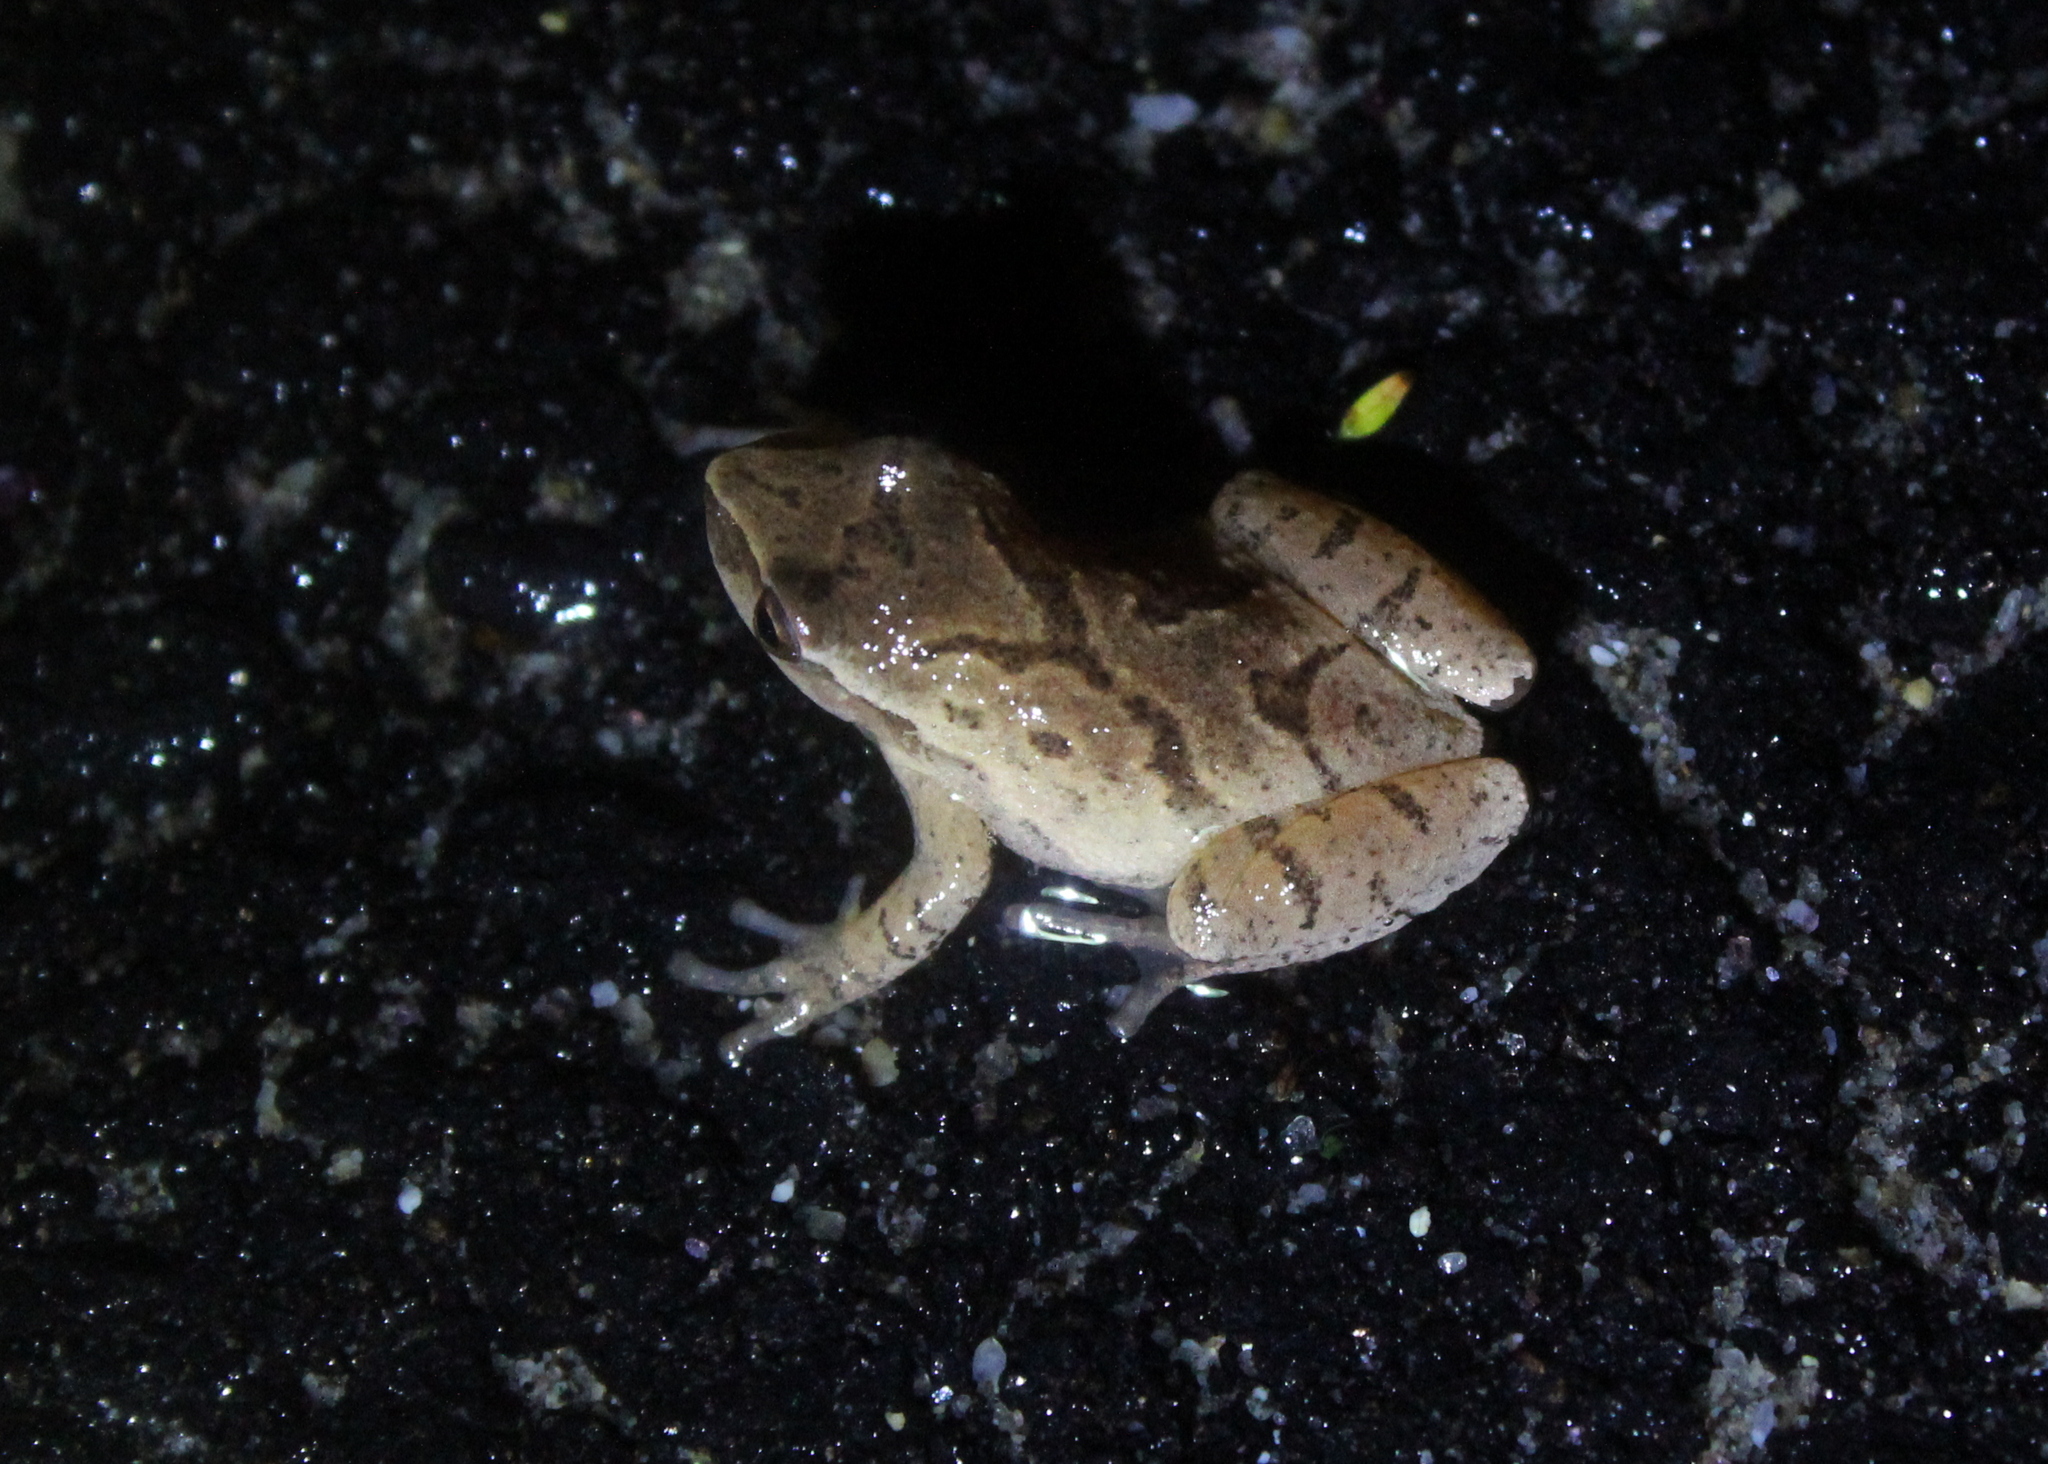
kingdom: Animalia
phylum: Chordata
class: Amphibia
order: Anura
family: Hylidae
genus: Pseudacris
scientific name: Pseudacris crucifer
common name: Spring peeper
